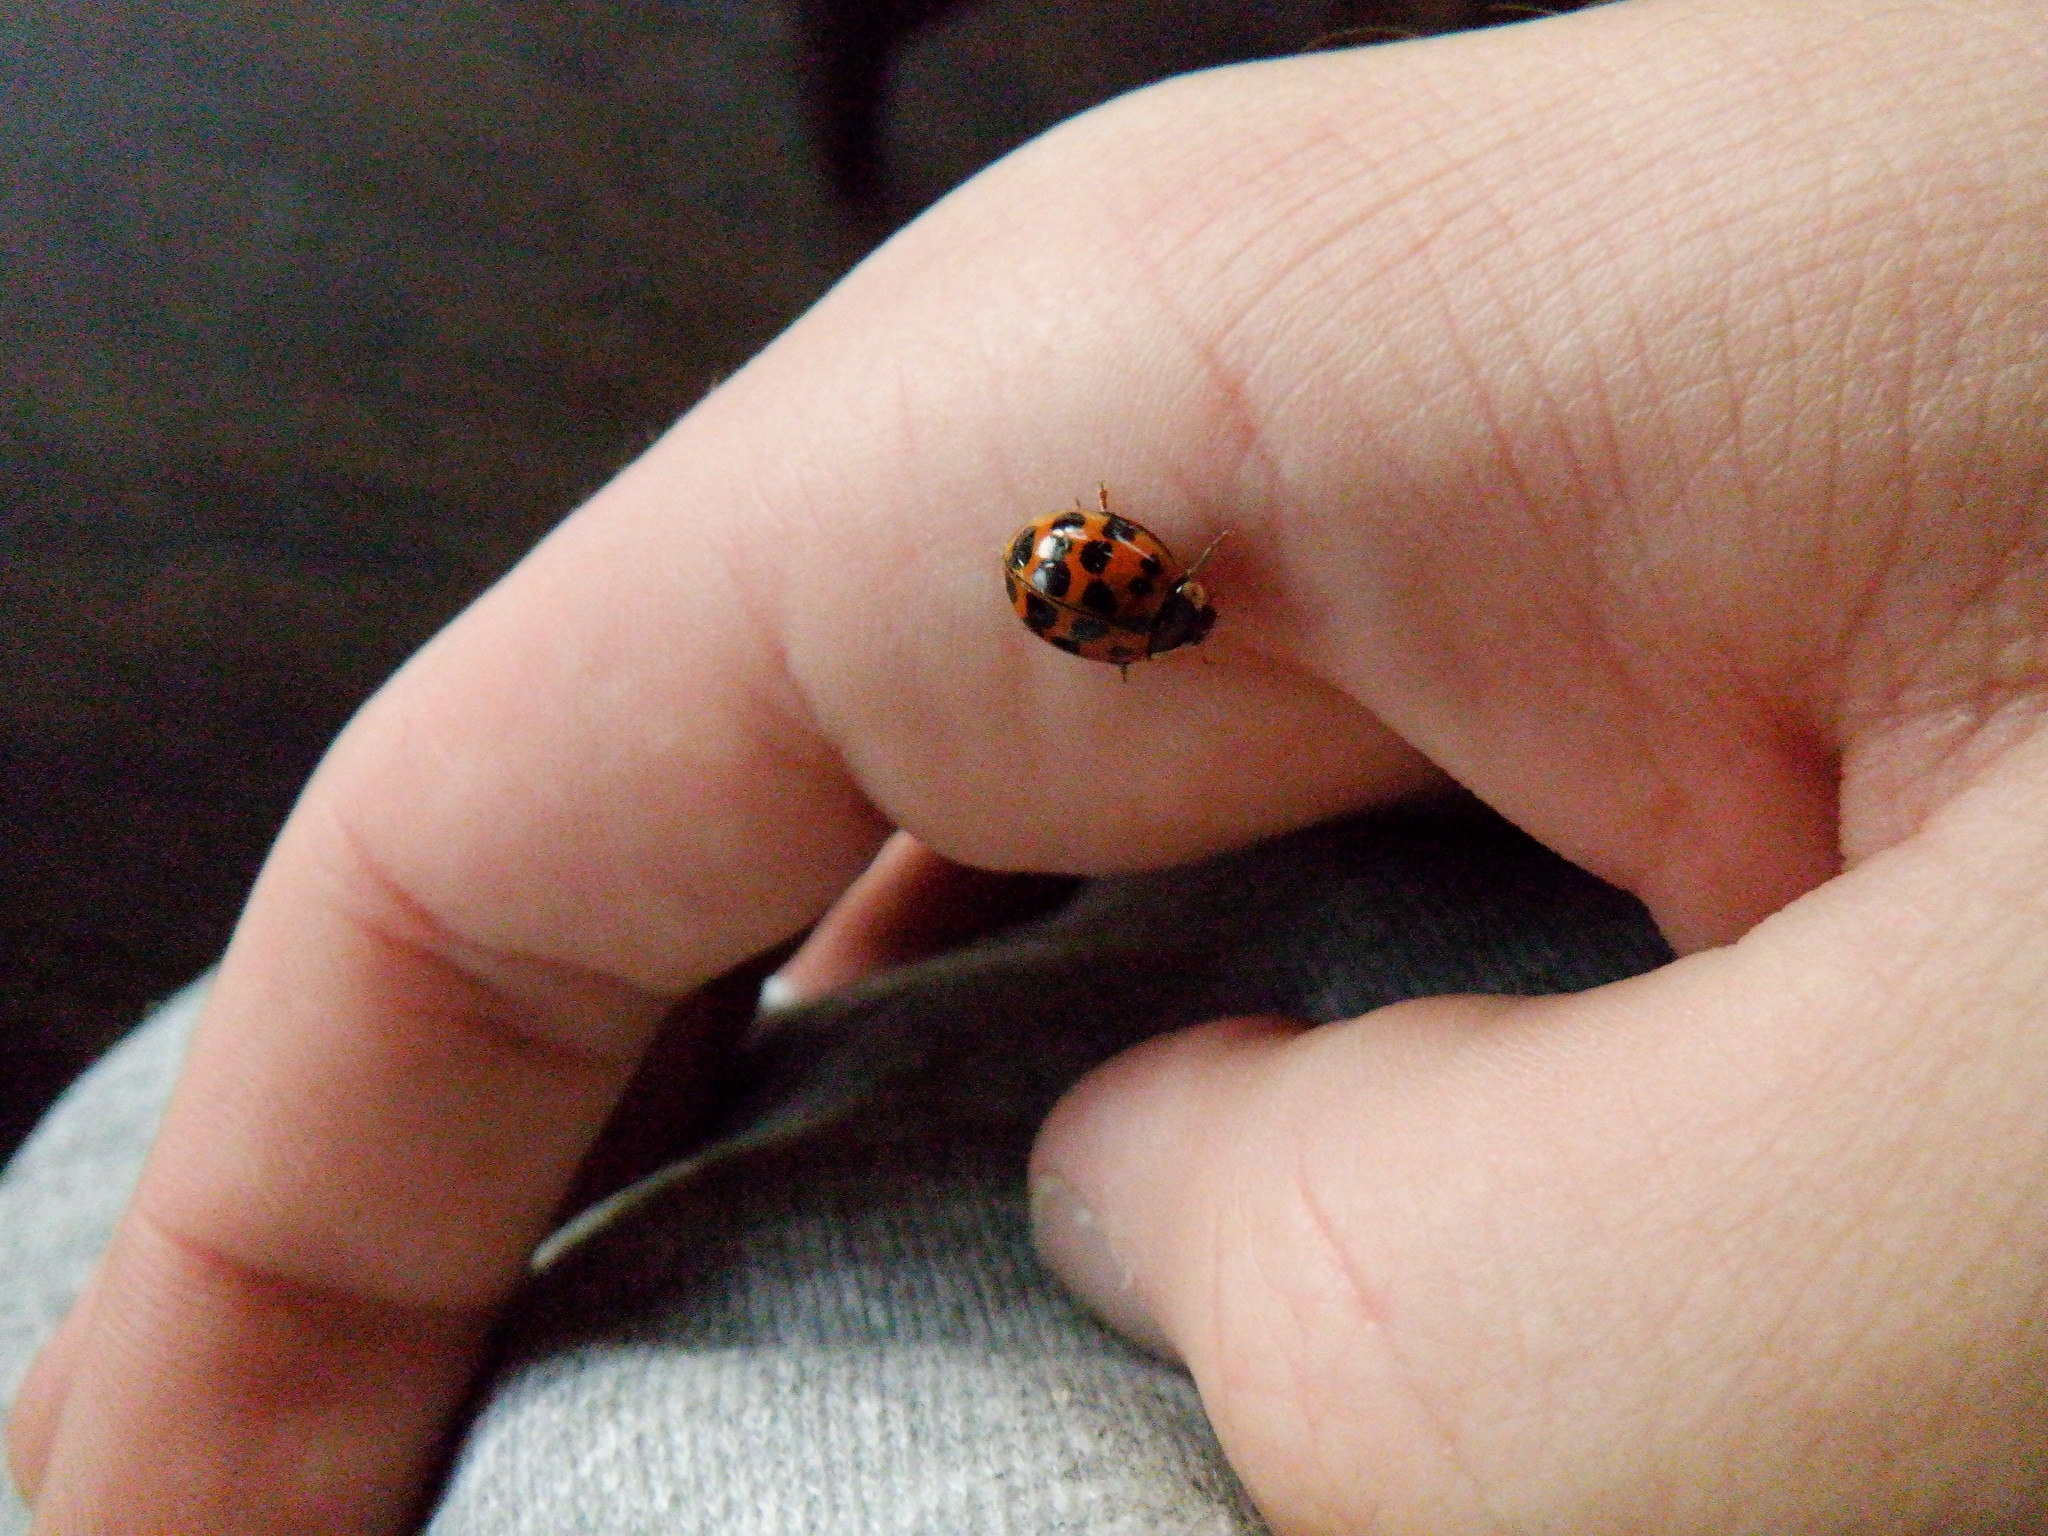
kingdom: Animalia
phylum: Arthropoda
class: Insecta
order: Coleoptera
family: Coccinellidae
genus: Harmonia
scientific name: Harmonia axyridis
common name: Harlequin ladybird
